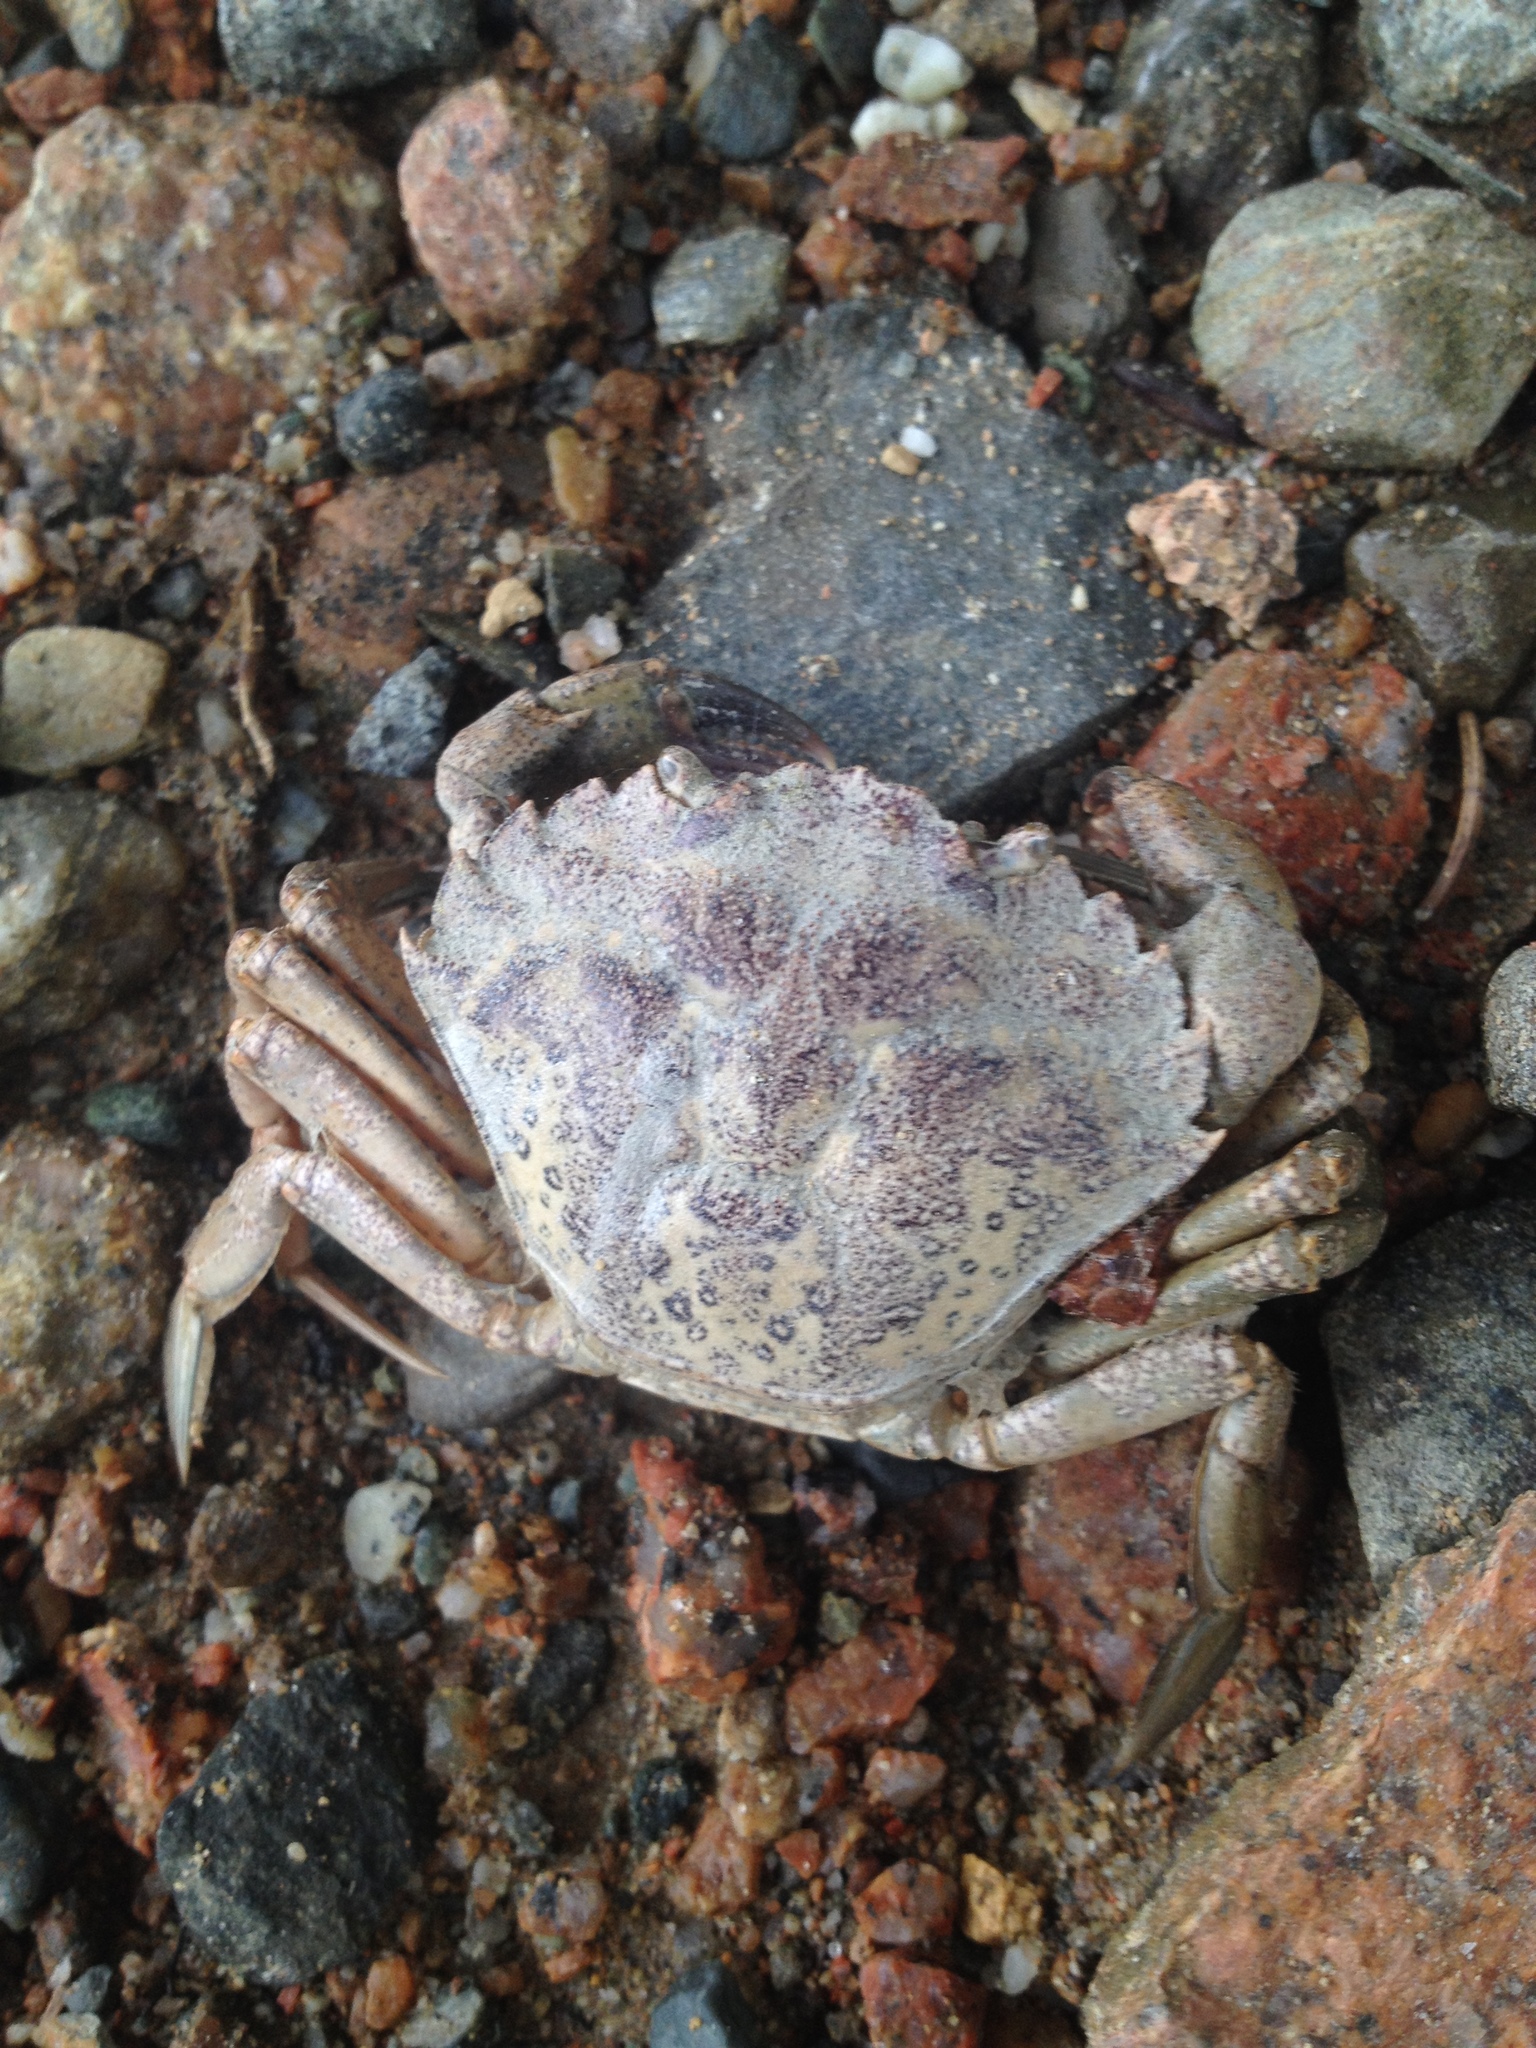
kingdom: Animalia
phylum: Arthropoda
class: Malacostraca
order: Decapoda
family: Carcinidae
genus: Carcinus
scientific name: Carcinus maenas
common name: European green crab
